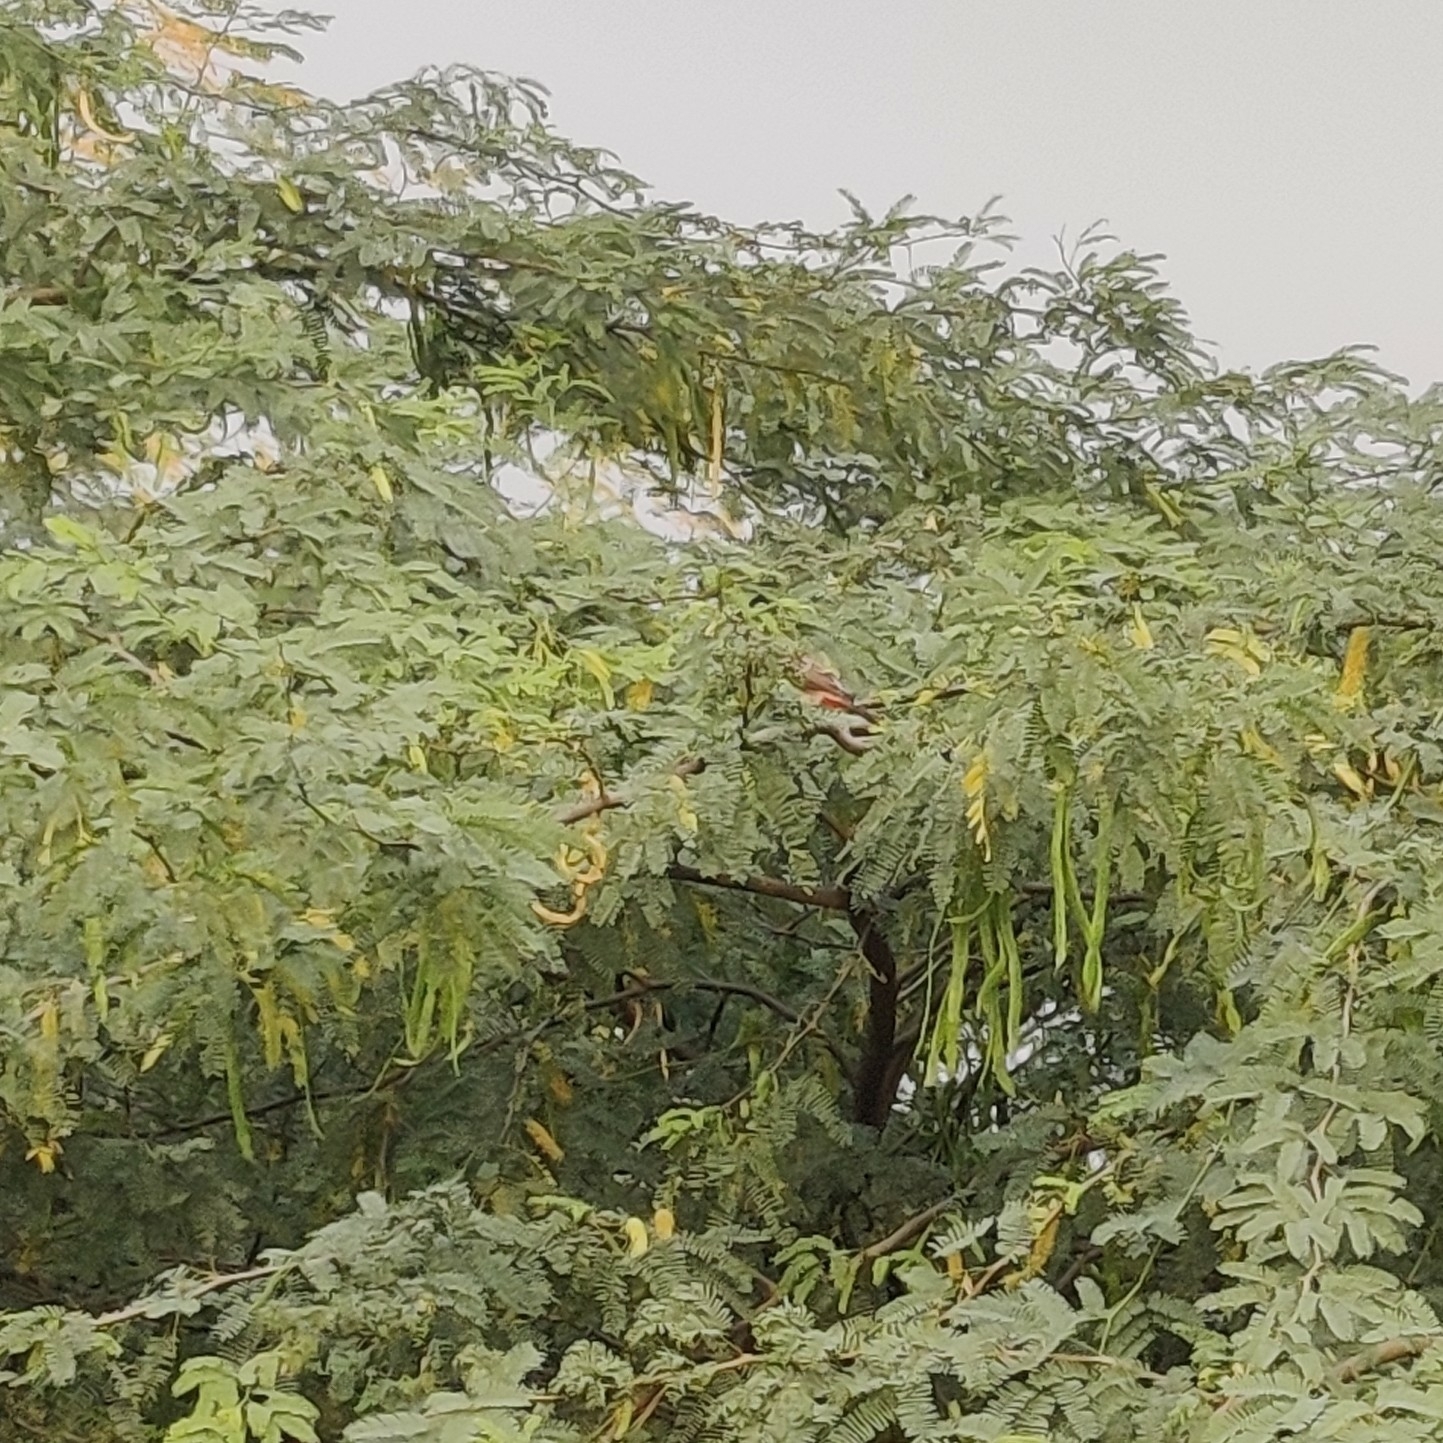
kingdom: Animalia
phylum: Chordata
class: Aves
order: Passeriformes
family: Pycnonotidae
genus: Pycnonotus
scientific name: Pycnonotus cafer
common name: Red-vented bulbul
